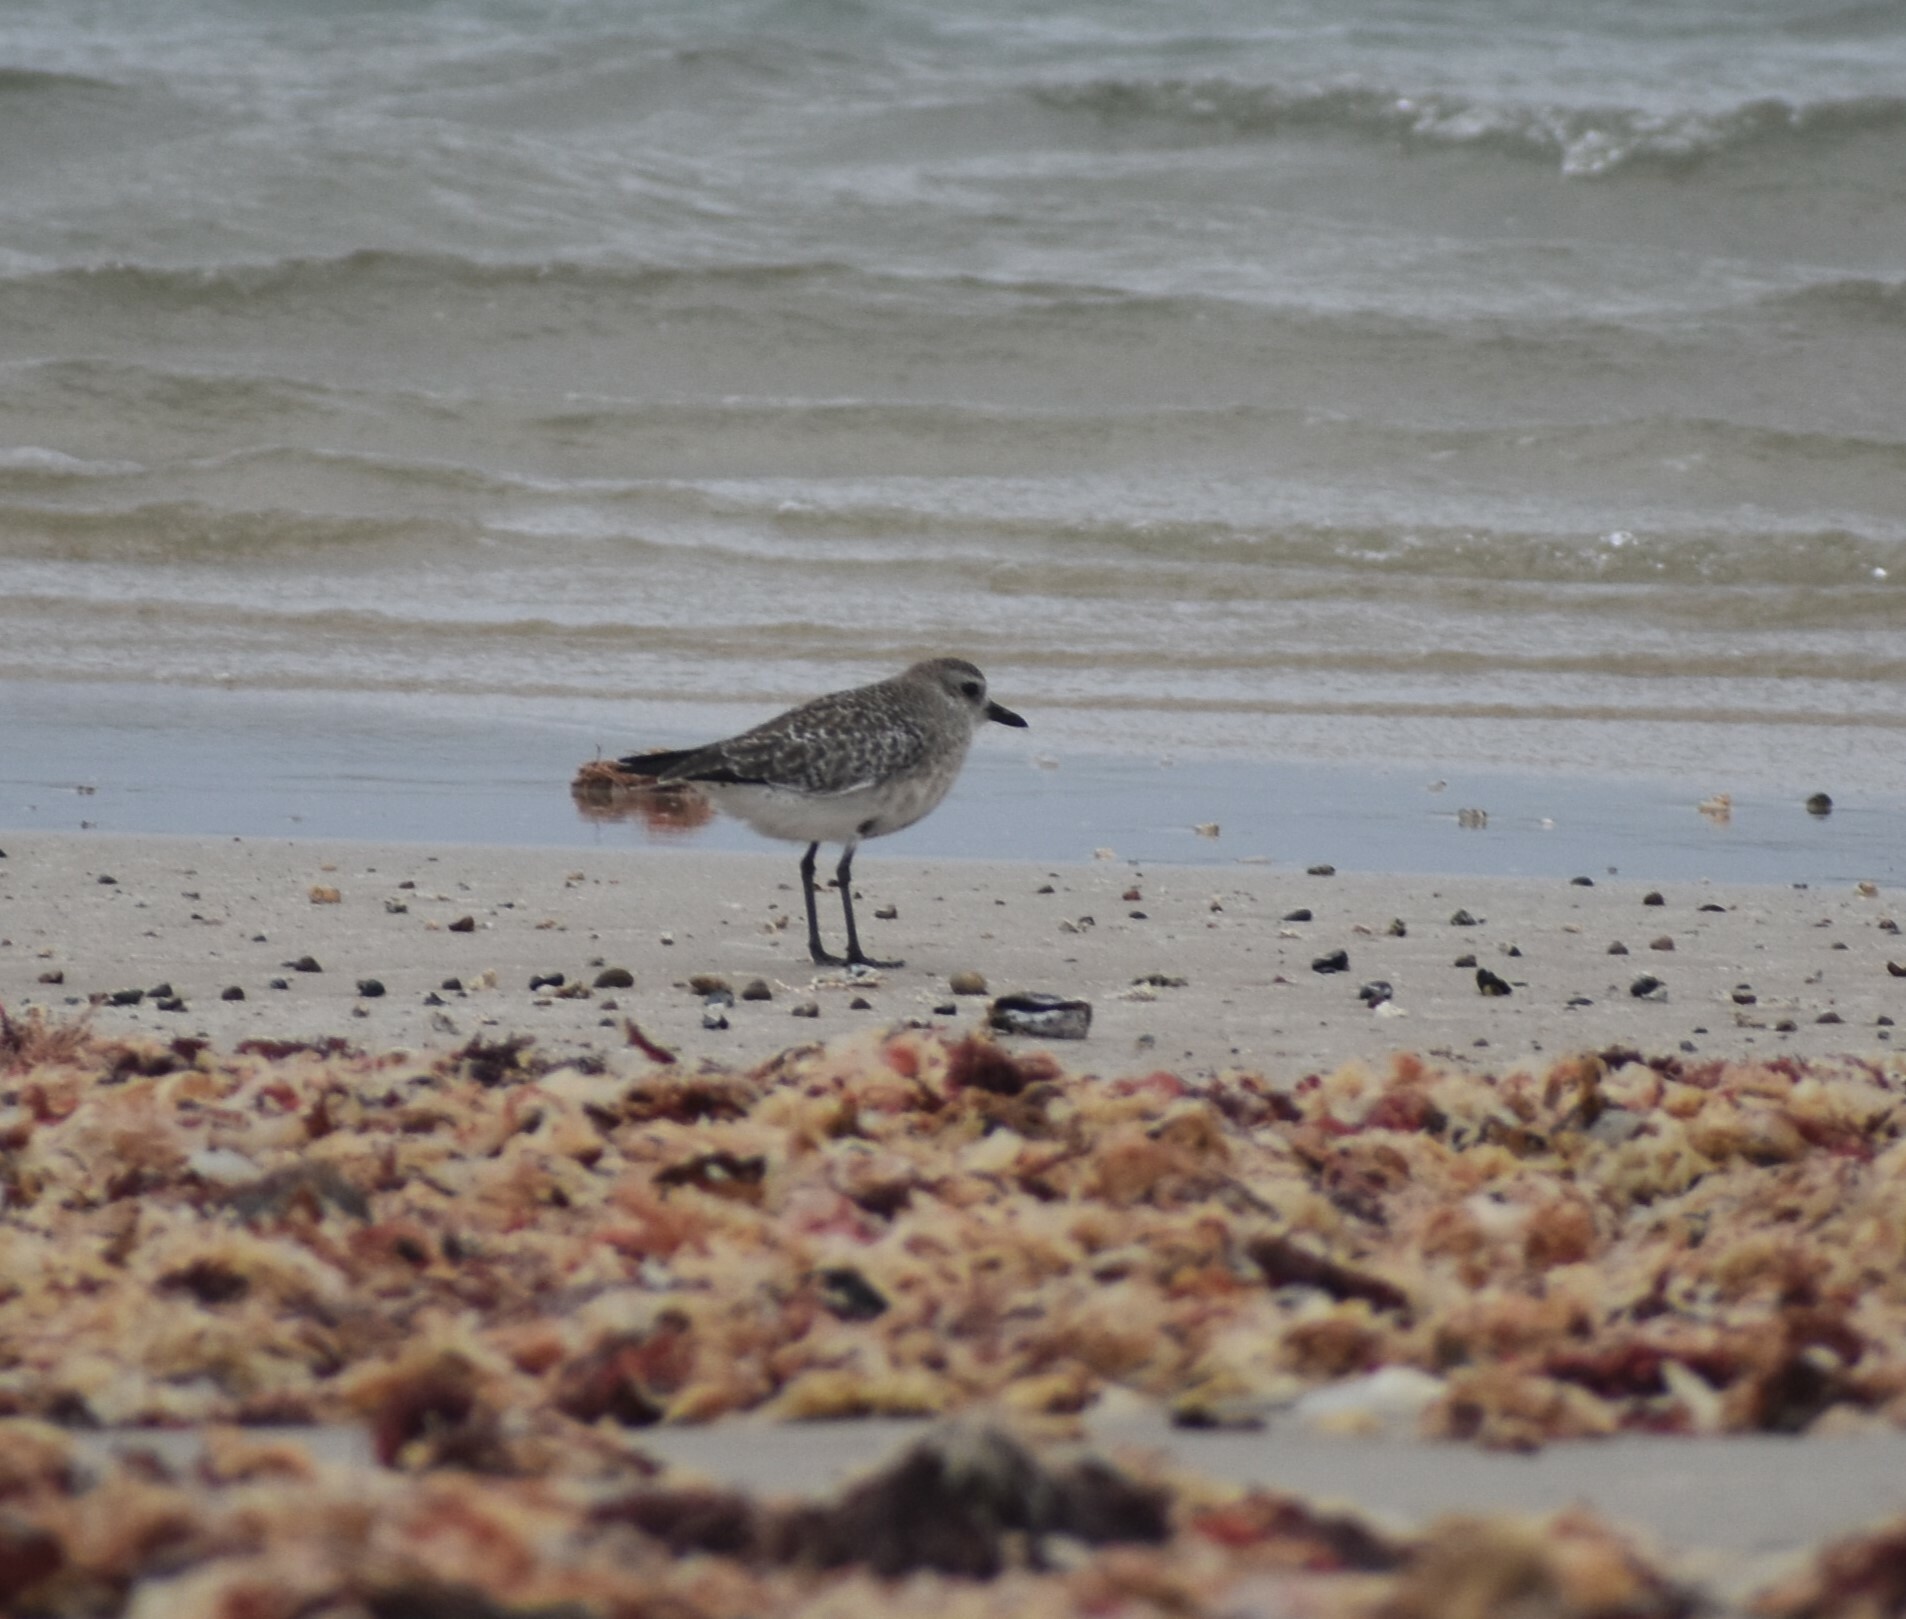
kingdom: Animalia
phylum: Chordata
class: Aves
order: Charadriiformes
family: Charadriidae
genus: Pluvialis
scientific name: Pluvialis squatarola
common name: Grey plover
